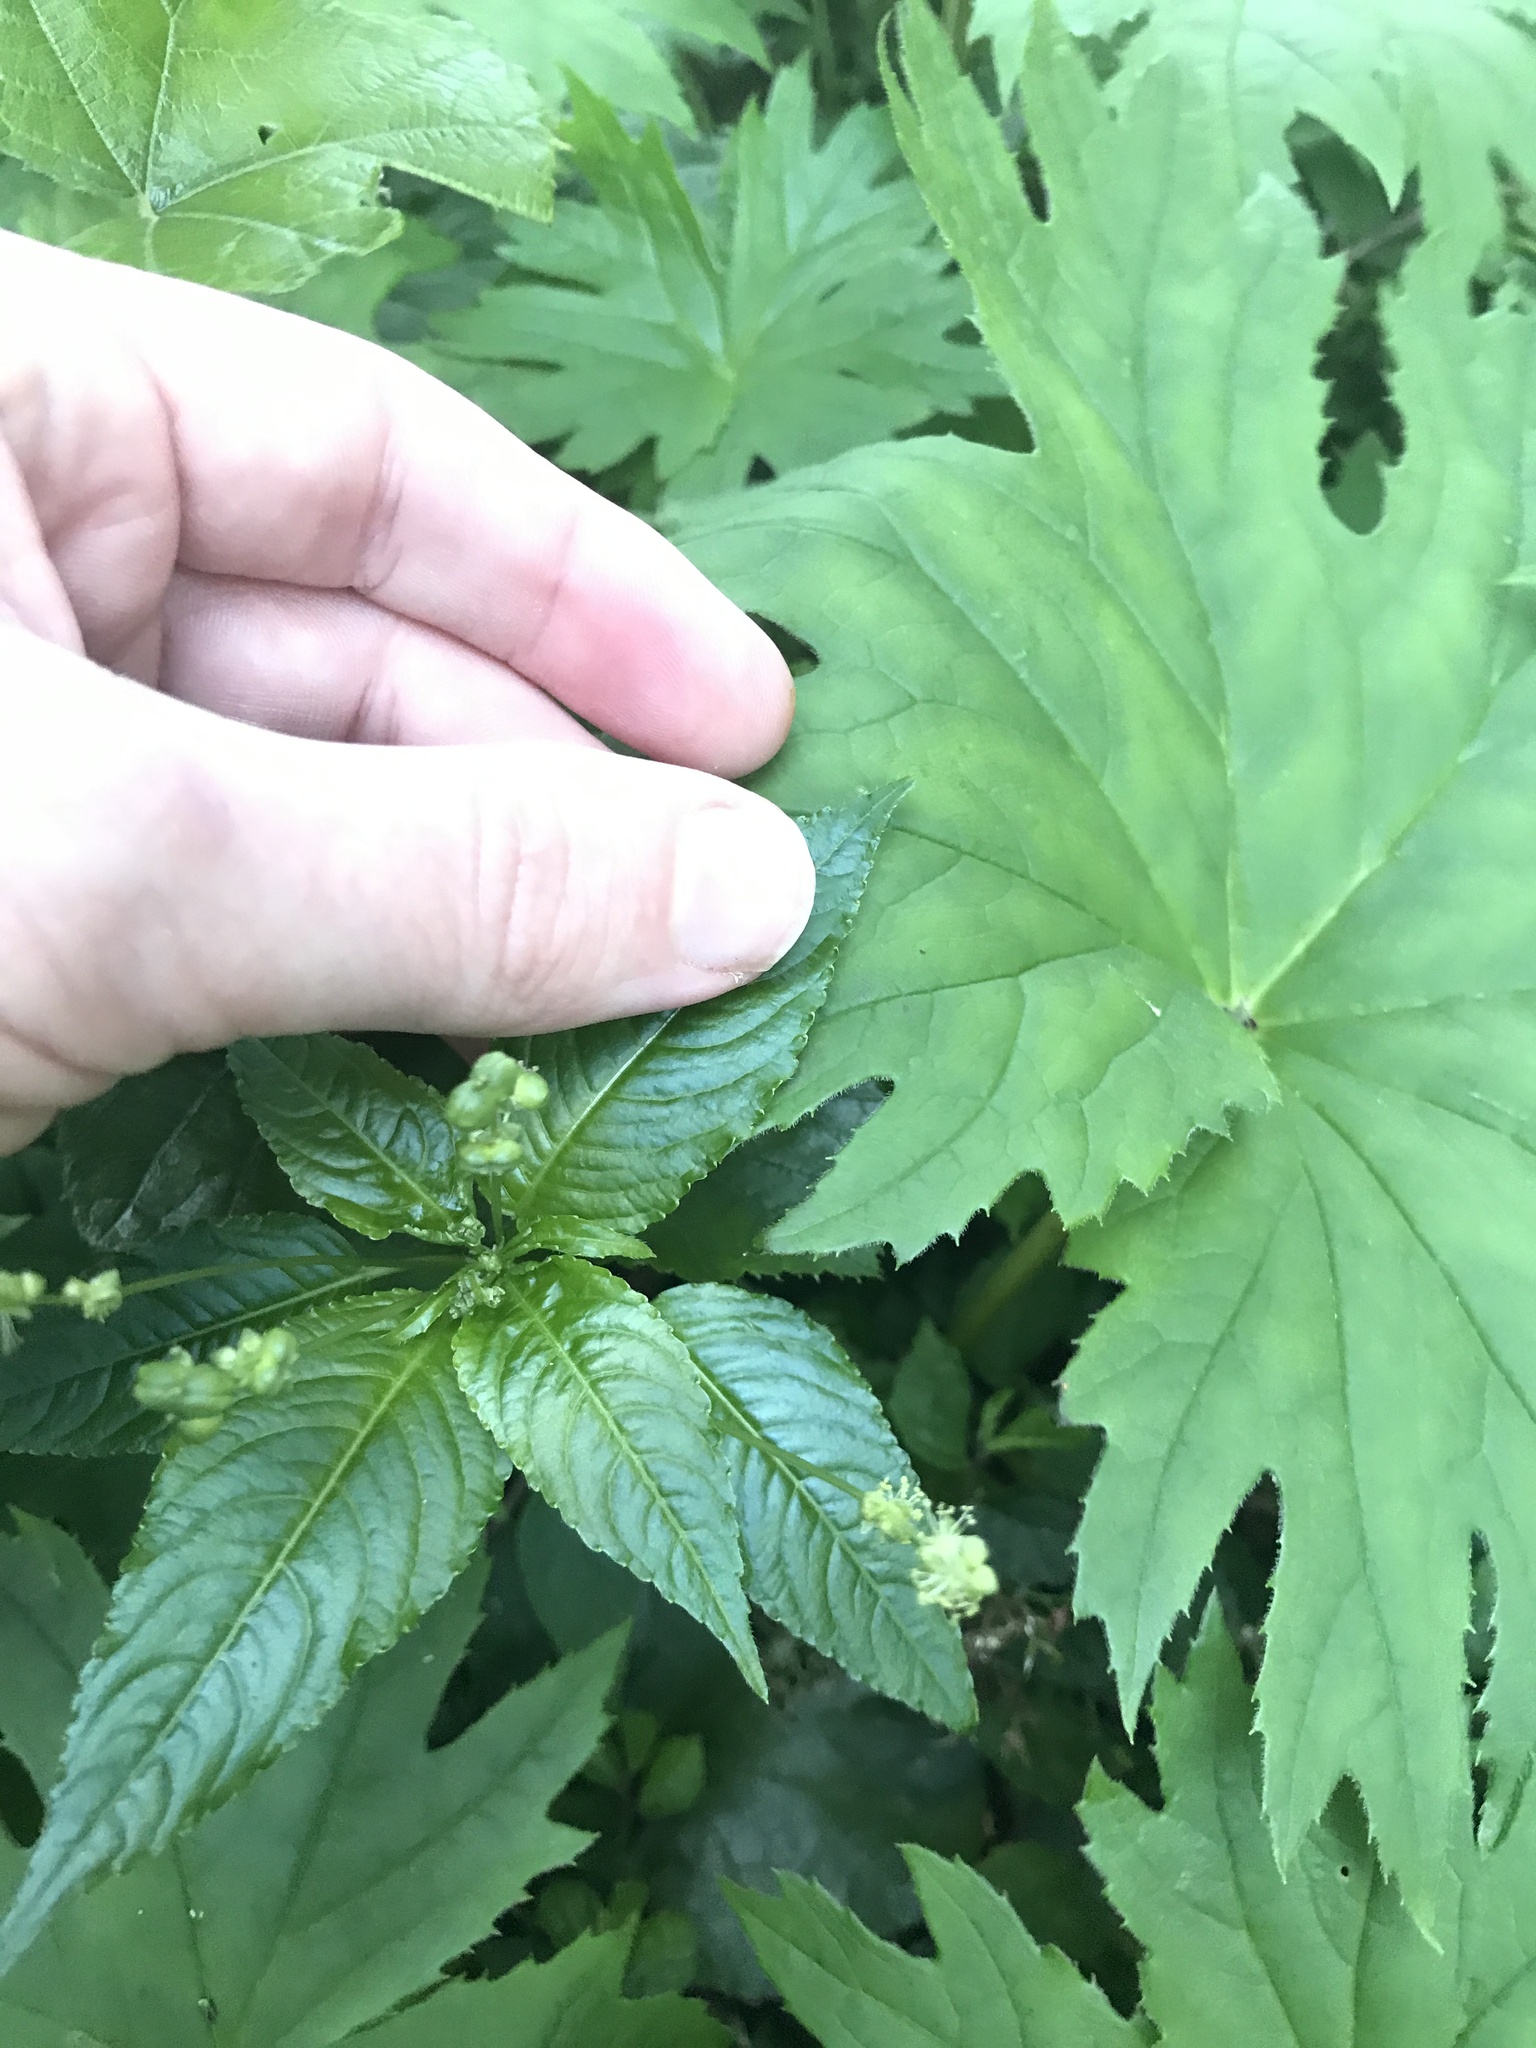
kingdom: Plantae
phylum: Tracheophyta
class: Magnoliopsida
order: Malpighiales
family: Euphorbiaceae
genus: Mercurialis
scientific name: Mercurialis leiocarpa
